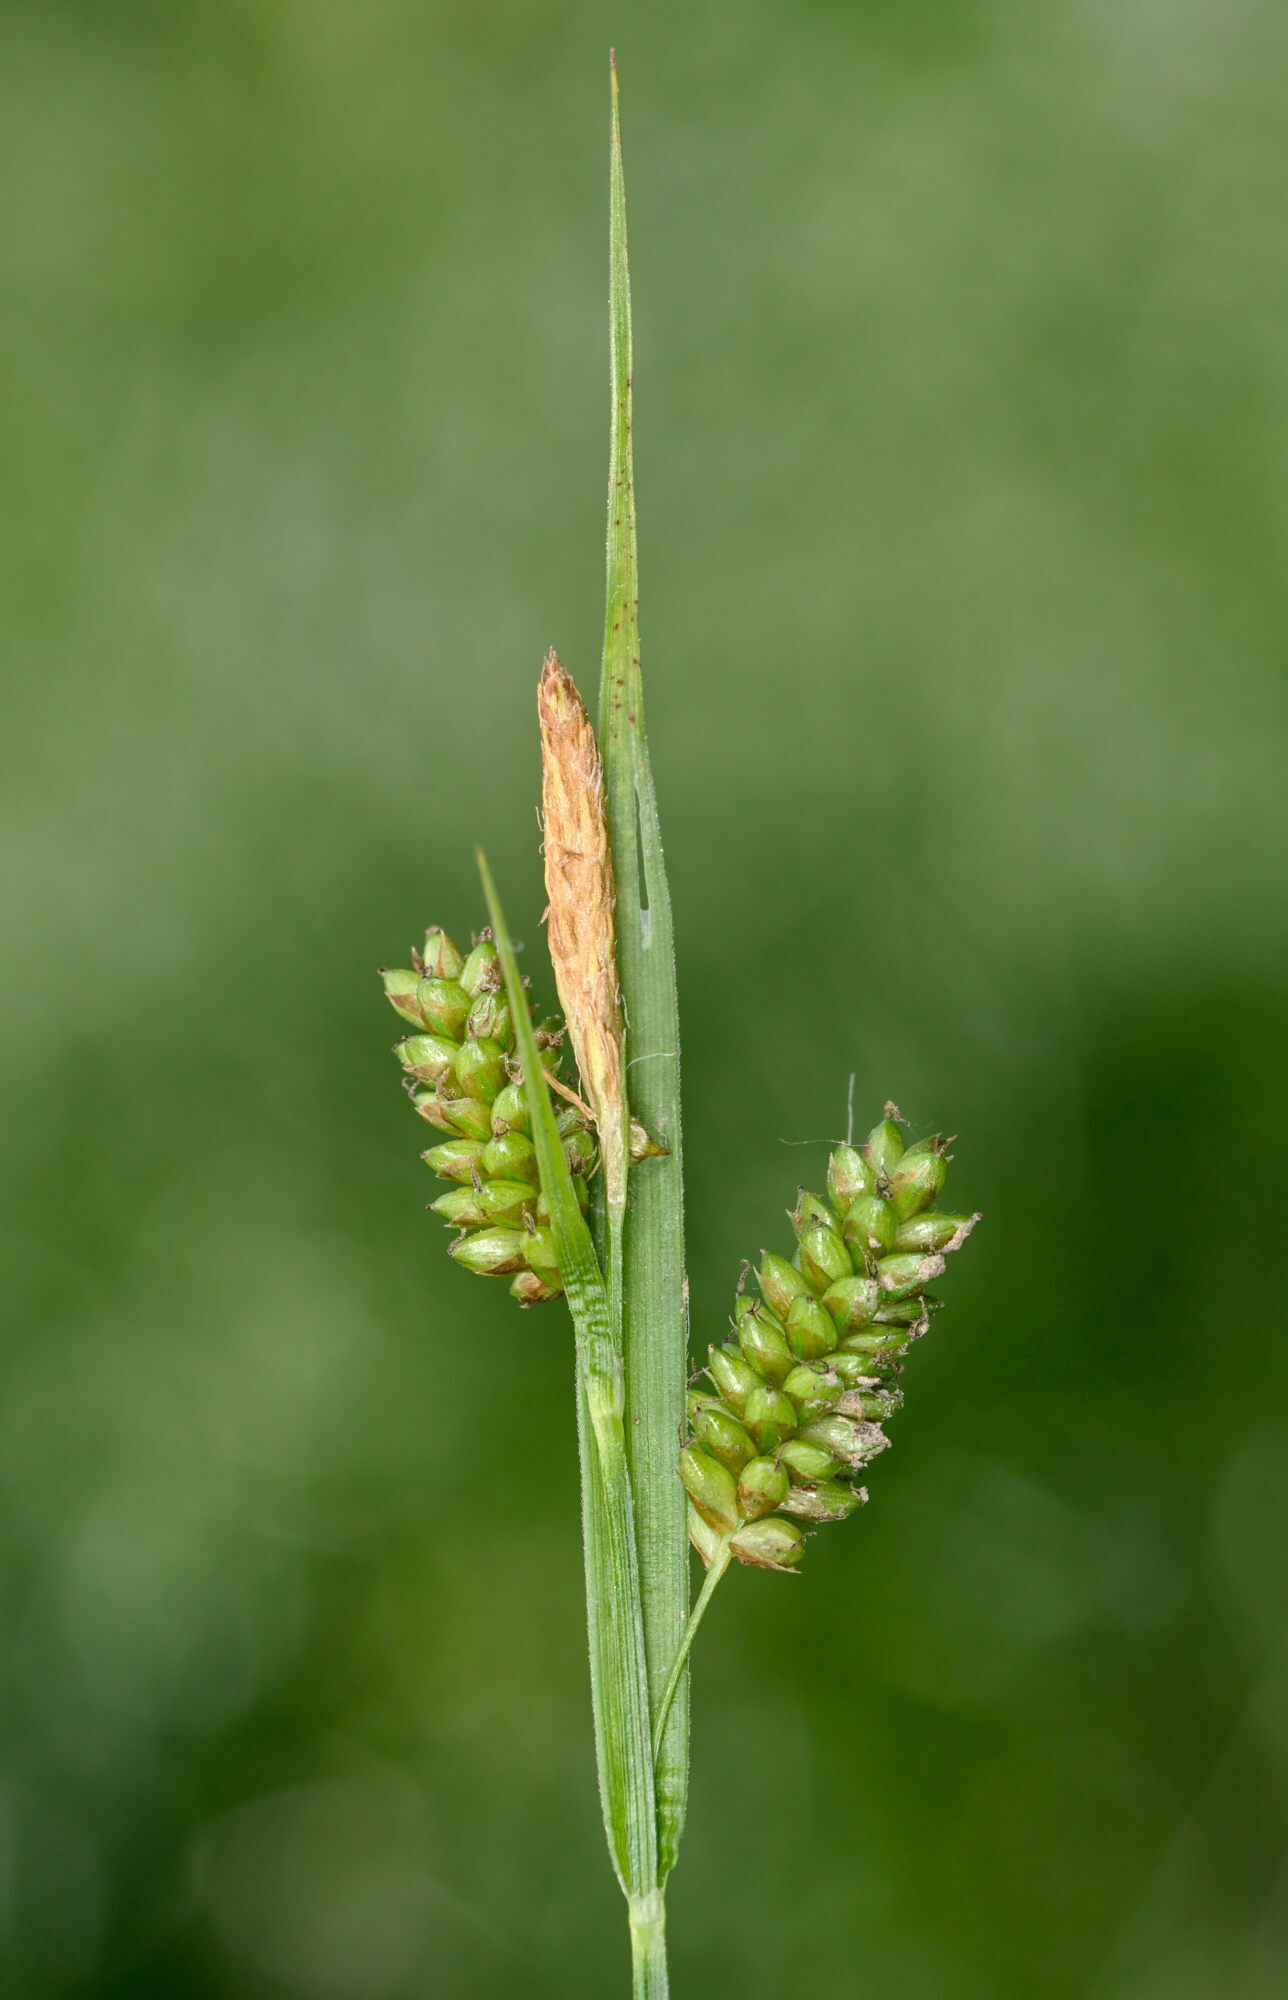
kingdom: Plantae
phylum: Tracheophyta
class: Liliopsida
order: Poales
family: Cyperaceae
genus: Carex
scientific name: Carex pallescens
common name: Pale sedge
